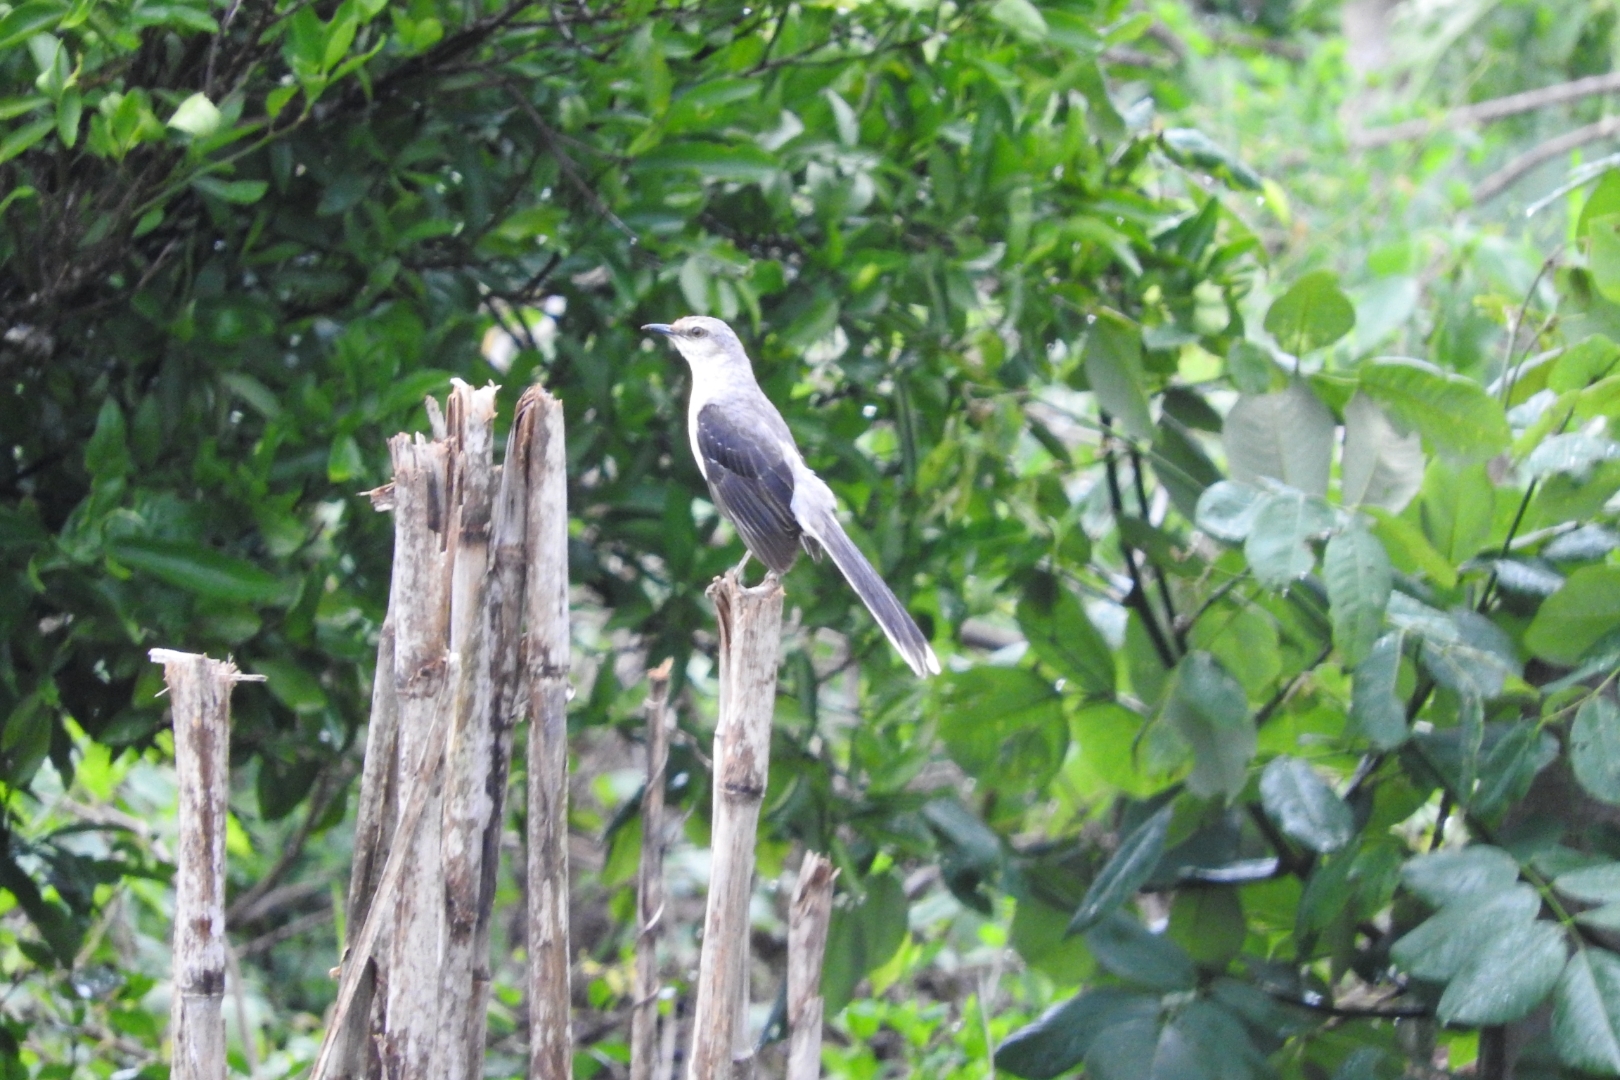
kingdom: Animalia
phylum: Chordata
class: Aves
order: Passeriformes
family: Mimidae
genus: Mimus
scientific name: Mimus gilvus
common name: Tropical mockingbird
